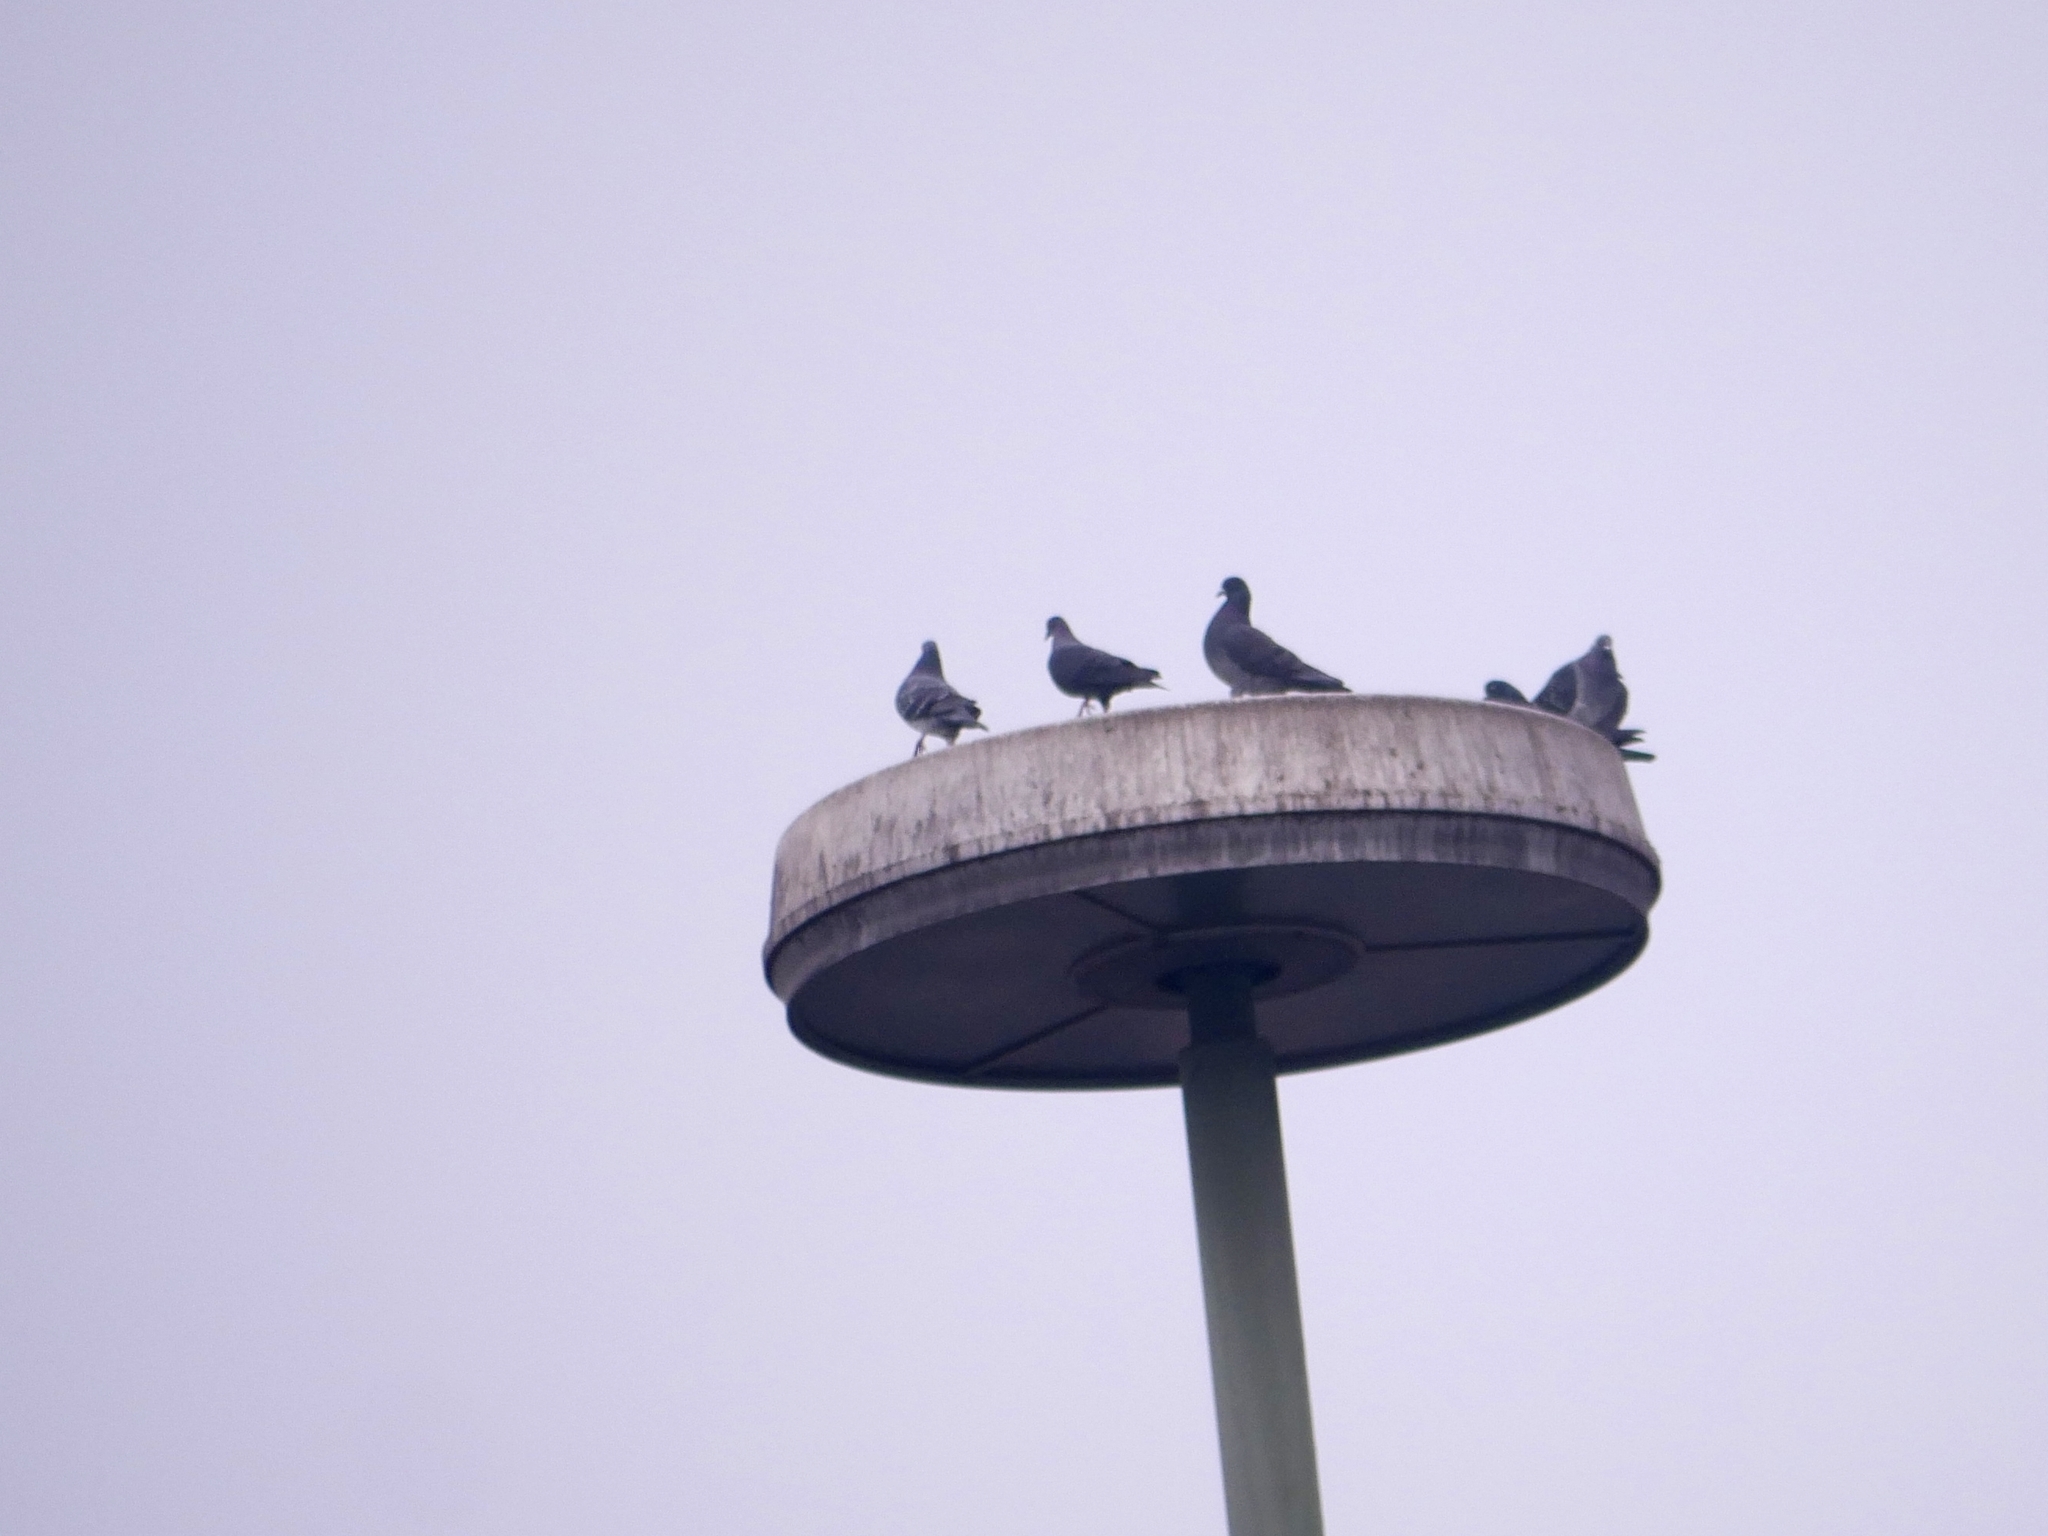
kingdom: Animalia
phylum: Chordata
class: Aves
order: Columbiformes
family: Columbidae
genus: Columba
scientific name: Columba livia
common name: Rock pigeon
